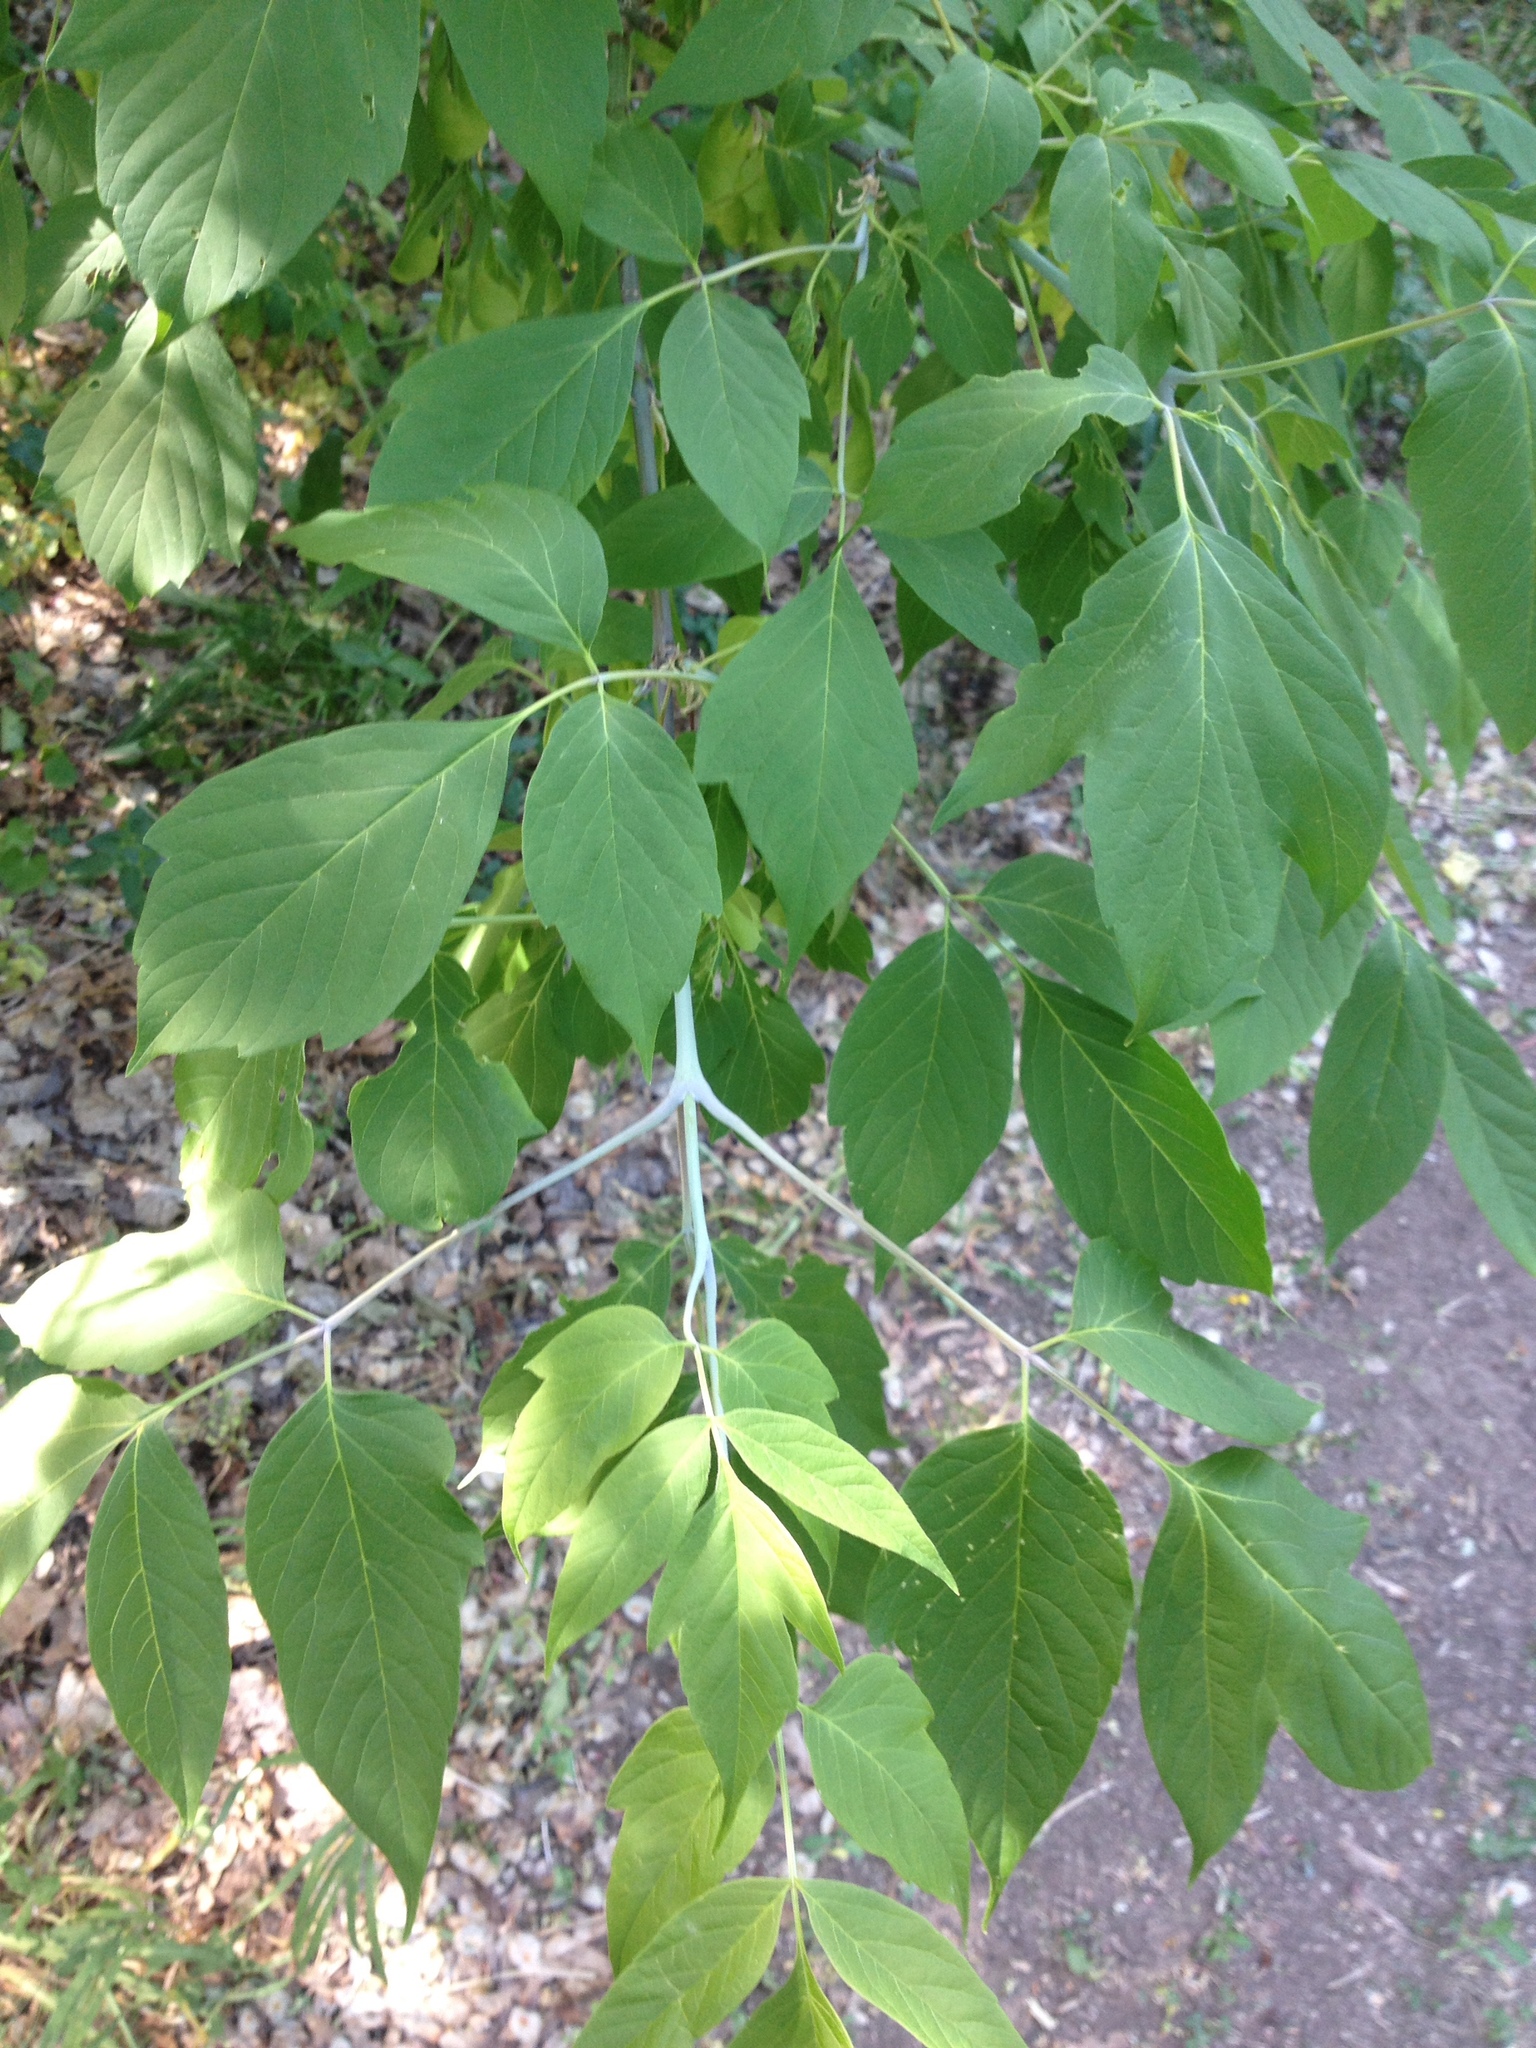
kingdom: Plantae
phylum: Tracheophyta
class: Magnoliopsida
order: Sapindales
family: Sapindaceae
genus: Acer
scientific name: Acer negundo
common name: Ashleaf maple
